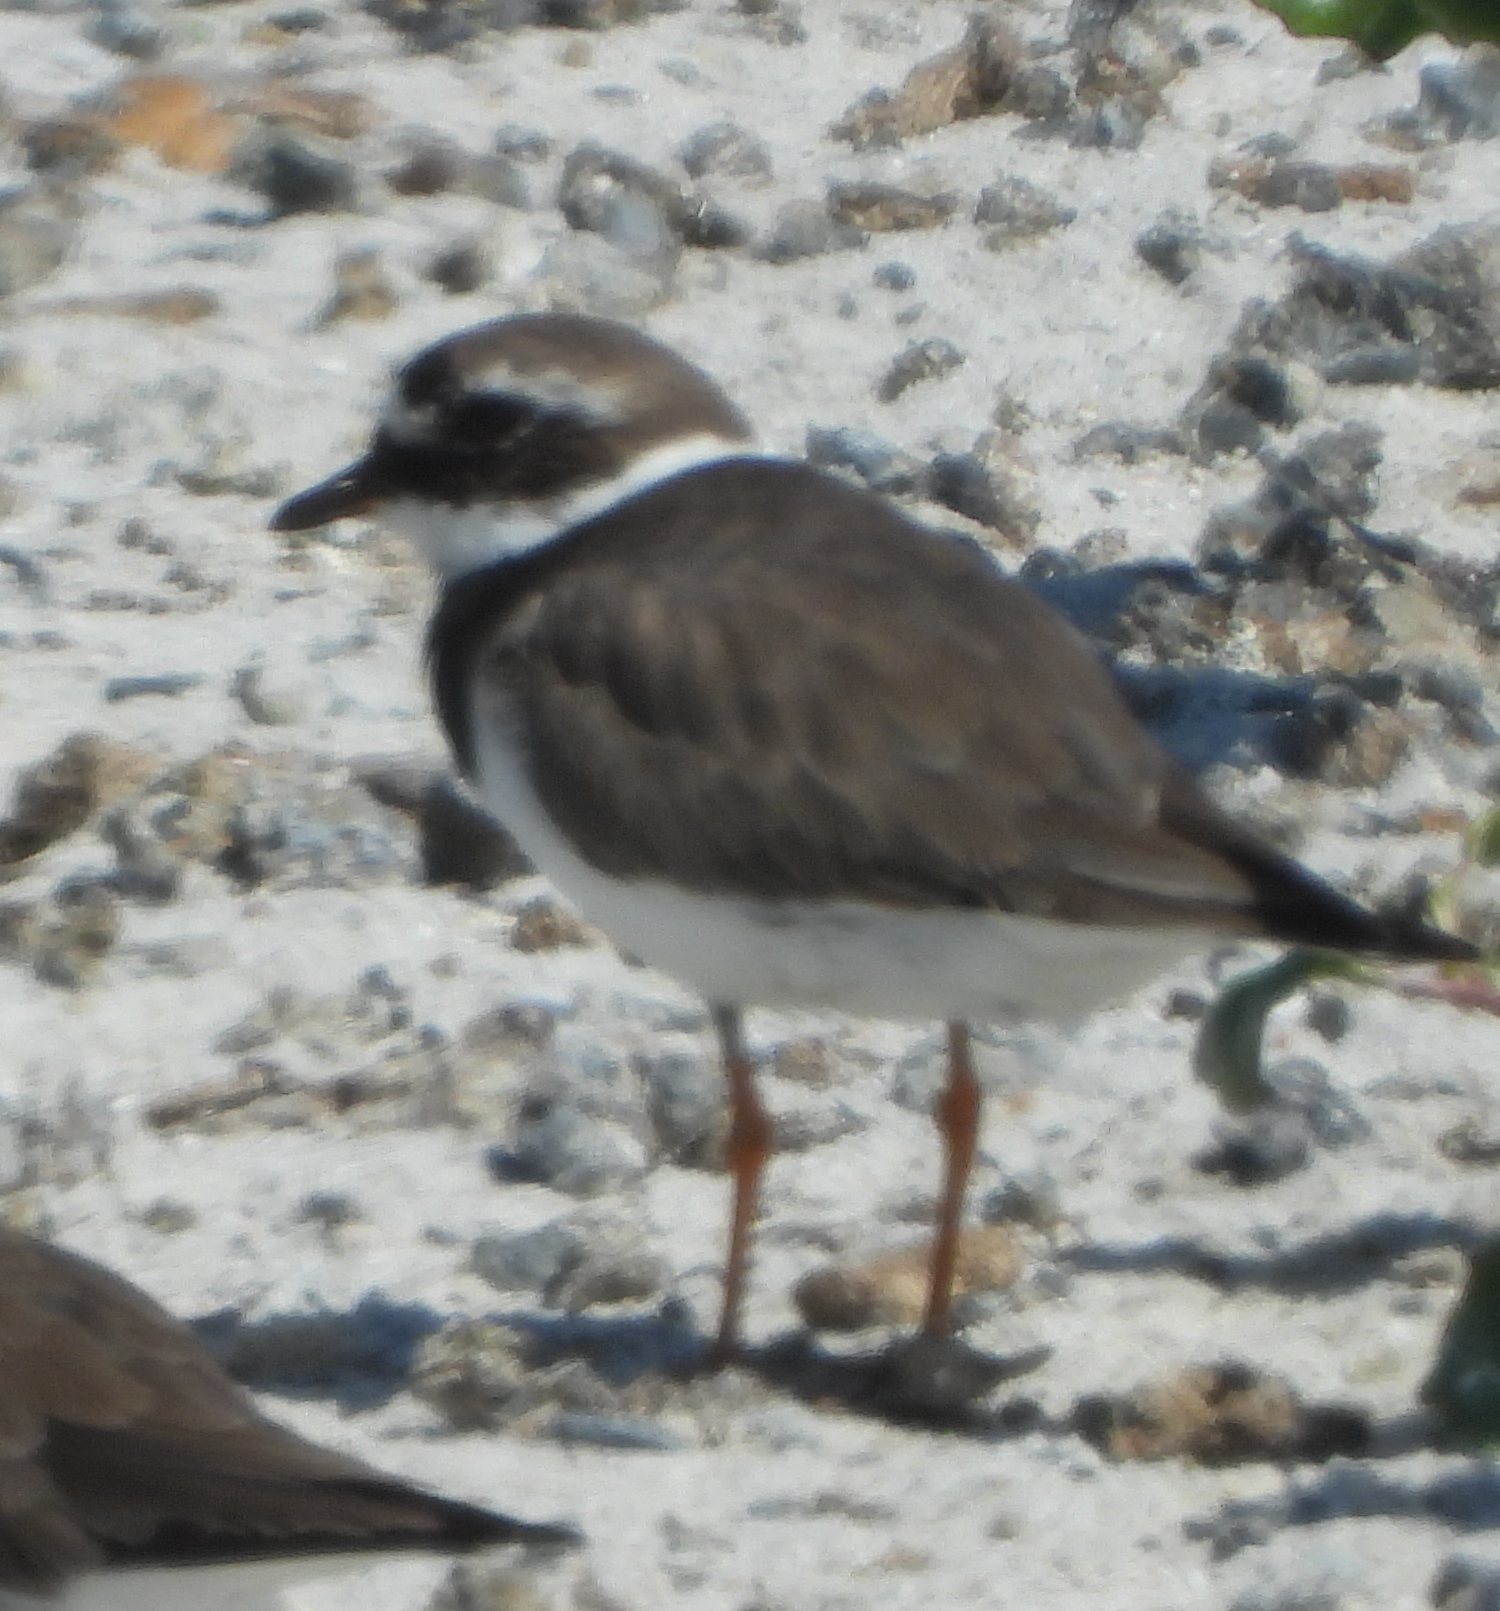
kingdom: Animalia
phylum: Chordata
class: Aves
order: Charadriiformes
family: Charadriidae
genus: Charadrius
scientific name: Charadrius hiaticula
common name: Common ringed plover
